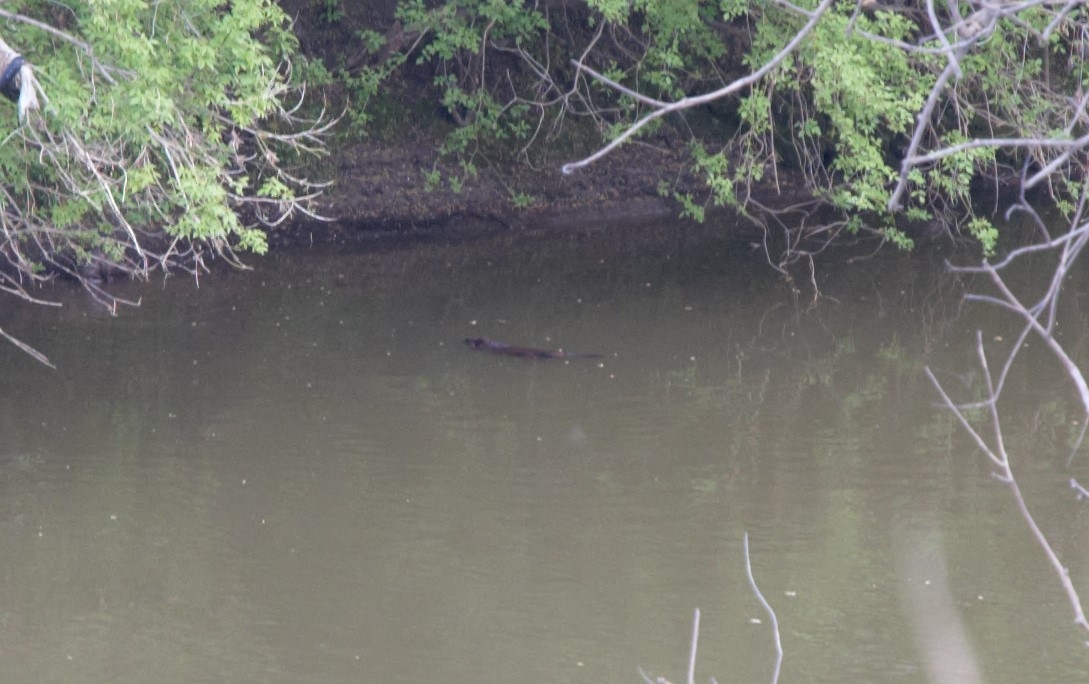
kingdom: Animalia
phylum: Chordata
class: Mammalia
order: Rodentia
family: Castoridae
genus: Castor
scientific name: Castor fiber
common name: Eurasian beaver
